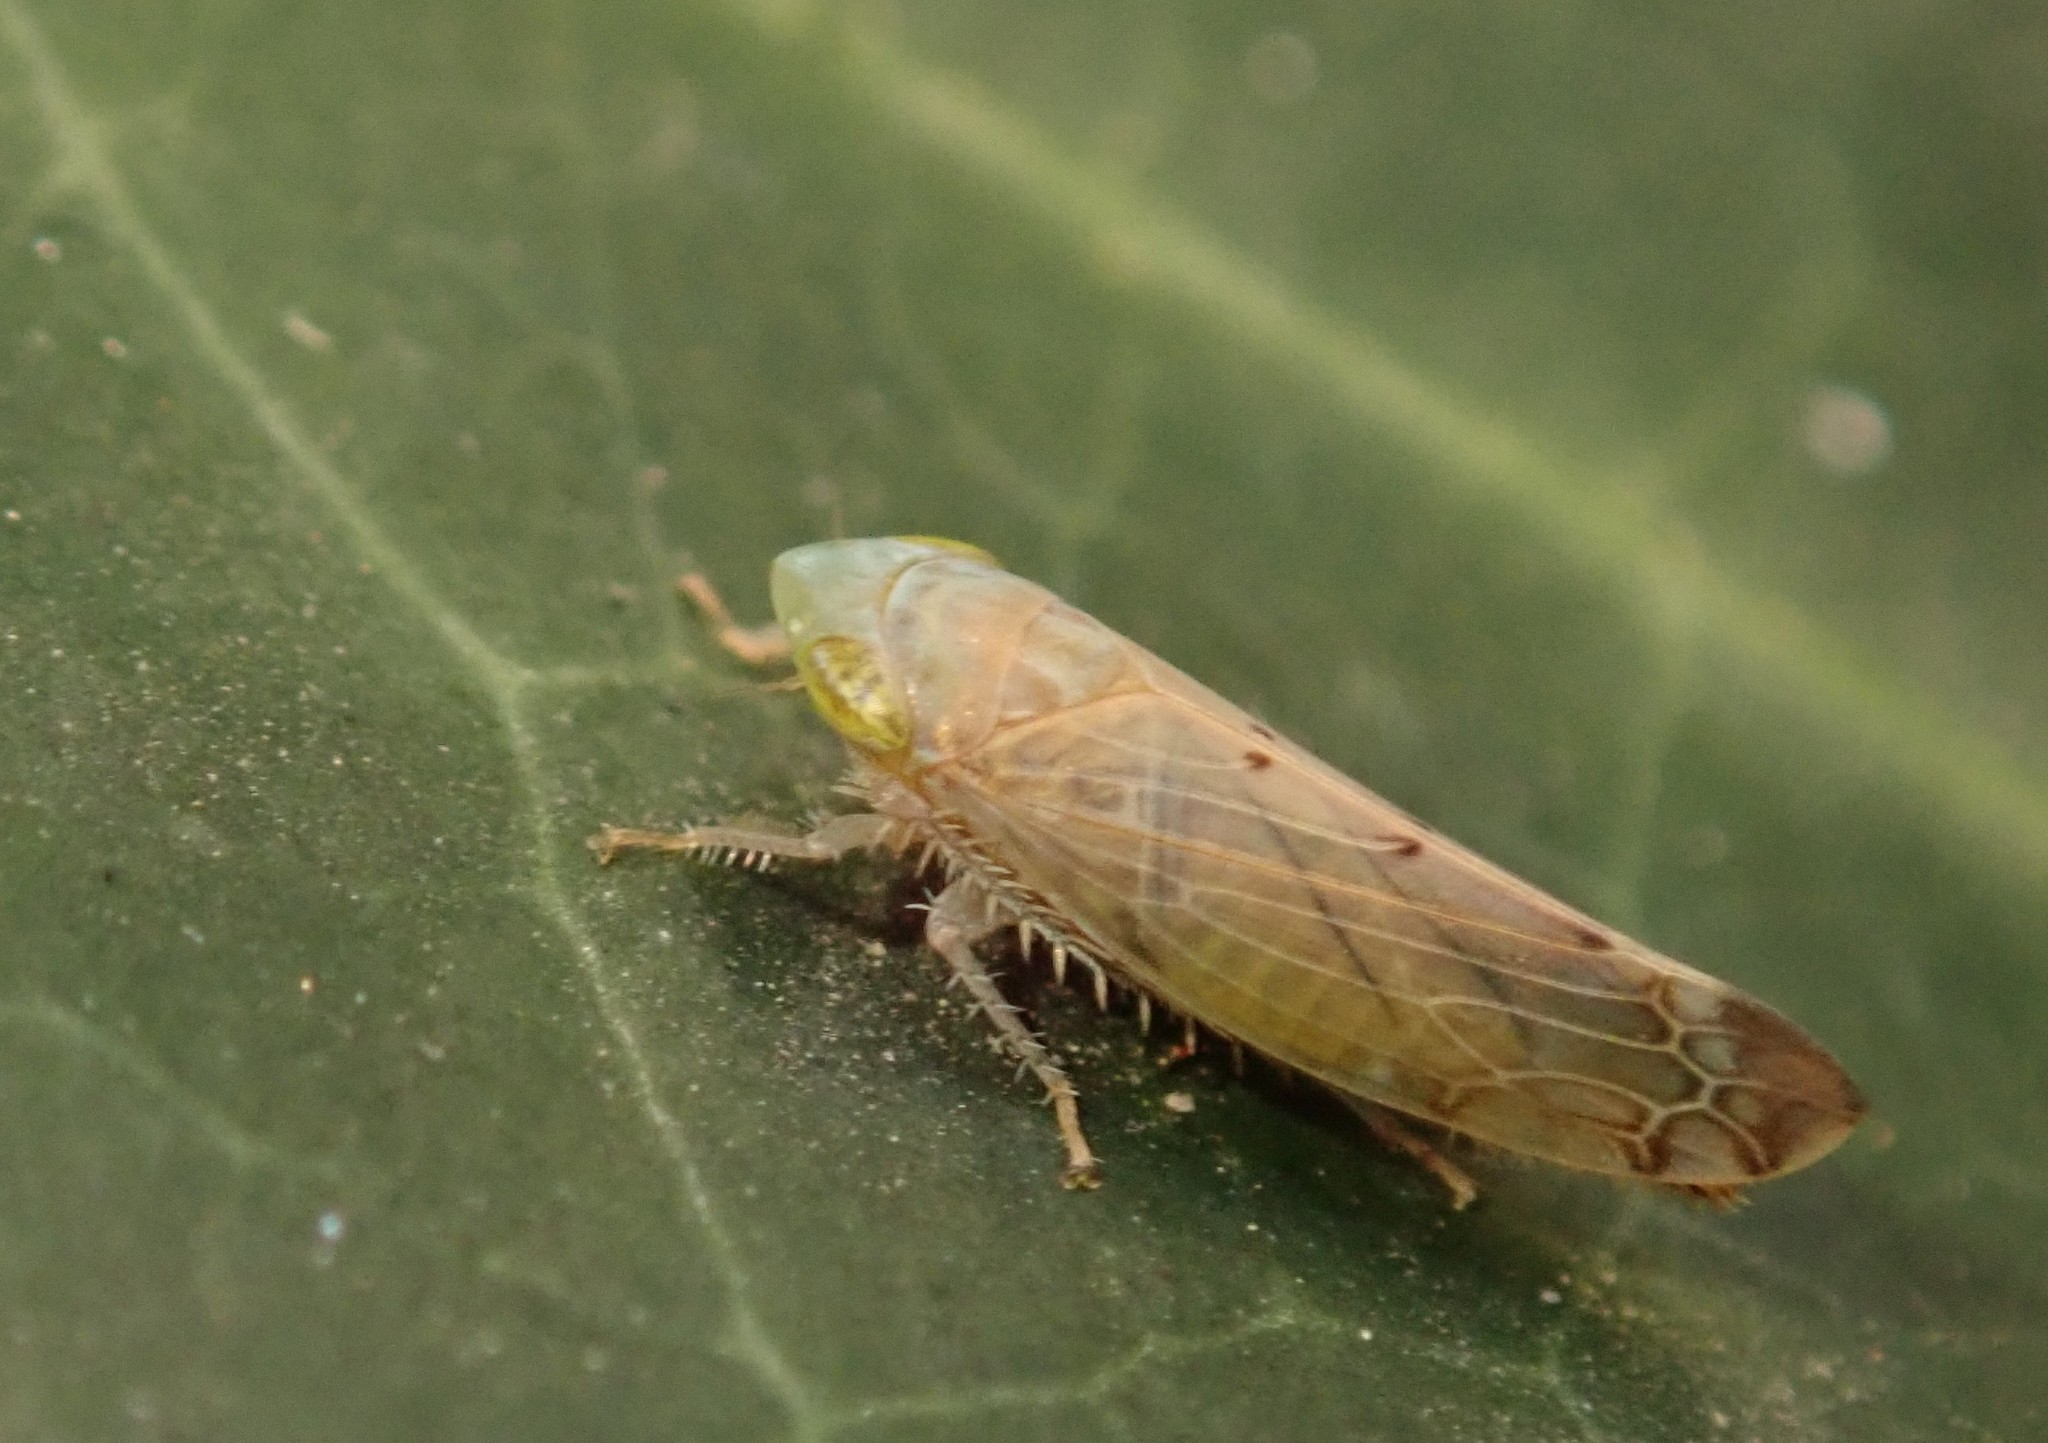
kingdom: Animalia
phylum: Arthropoda
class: Insecta
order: Hemiptera
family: Cicadellidae
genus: Synophropsis
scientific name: Synophropsis lauri
